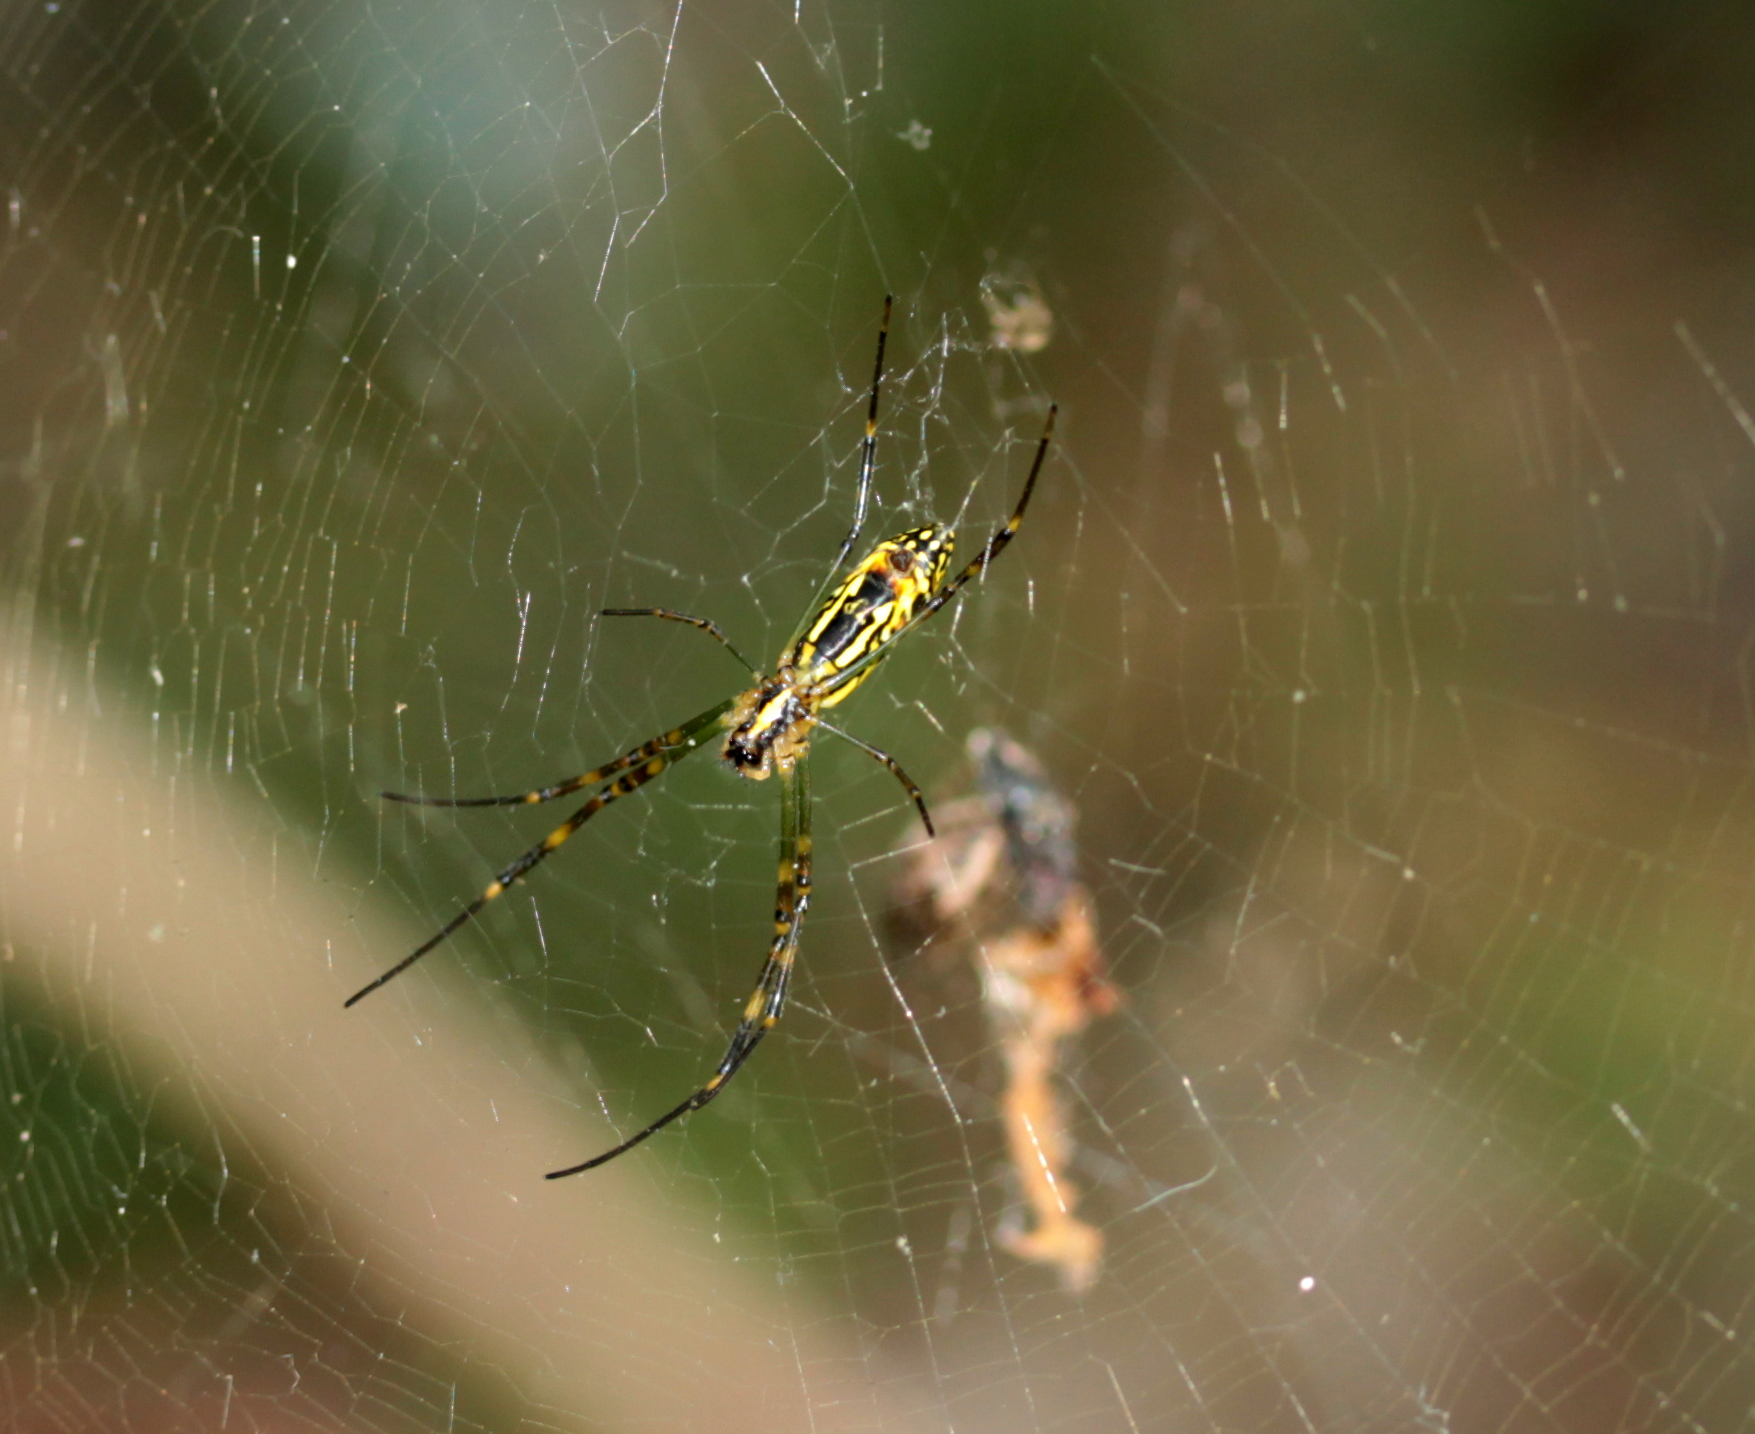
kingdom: Animalia
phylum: Arthropoda
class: Arachnida
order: Araneae
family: Araneidae
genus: Trichonephila
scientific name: Trichonephila clavata
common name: Jorō spider
